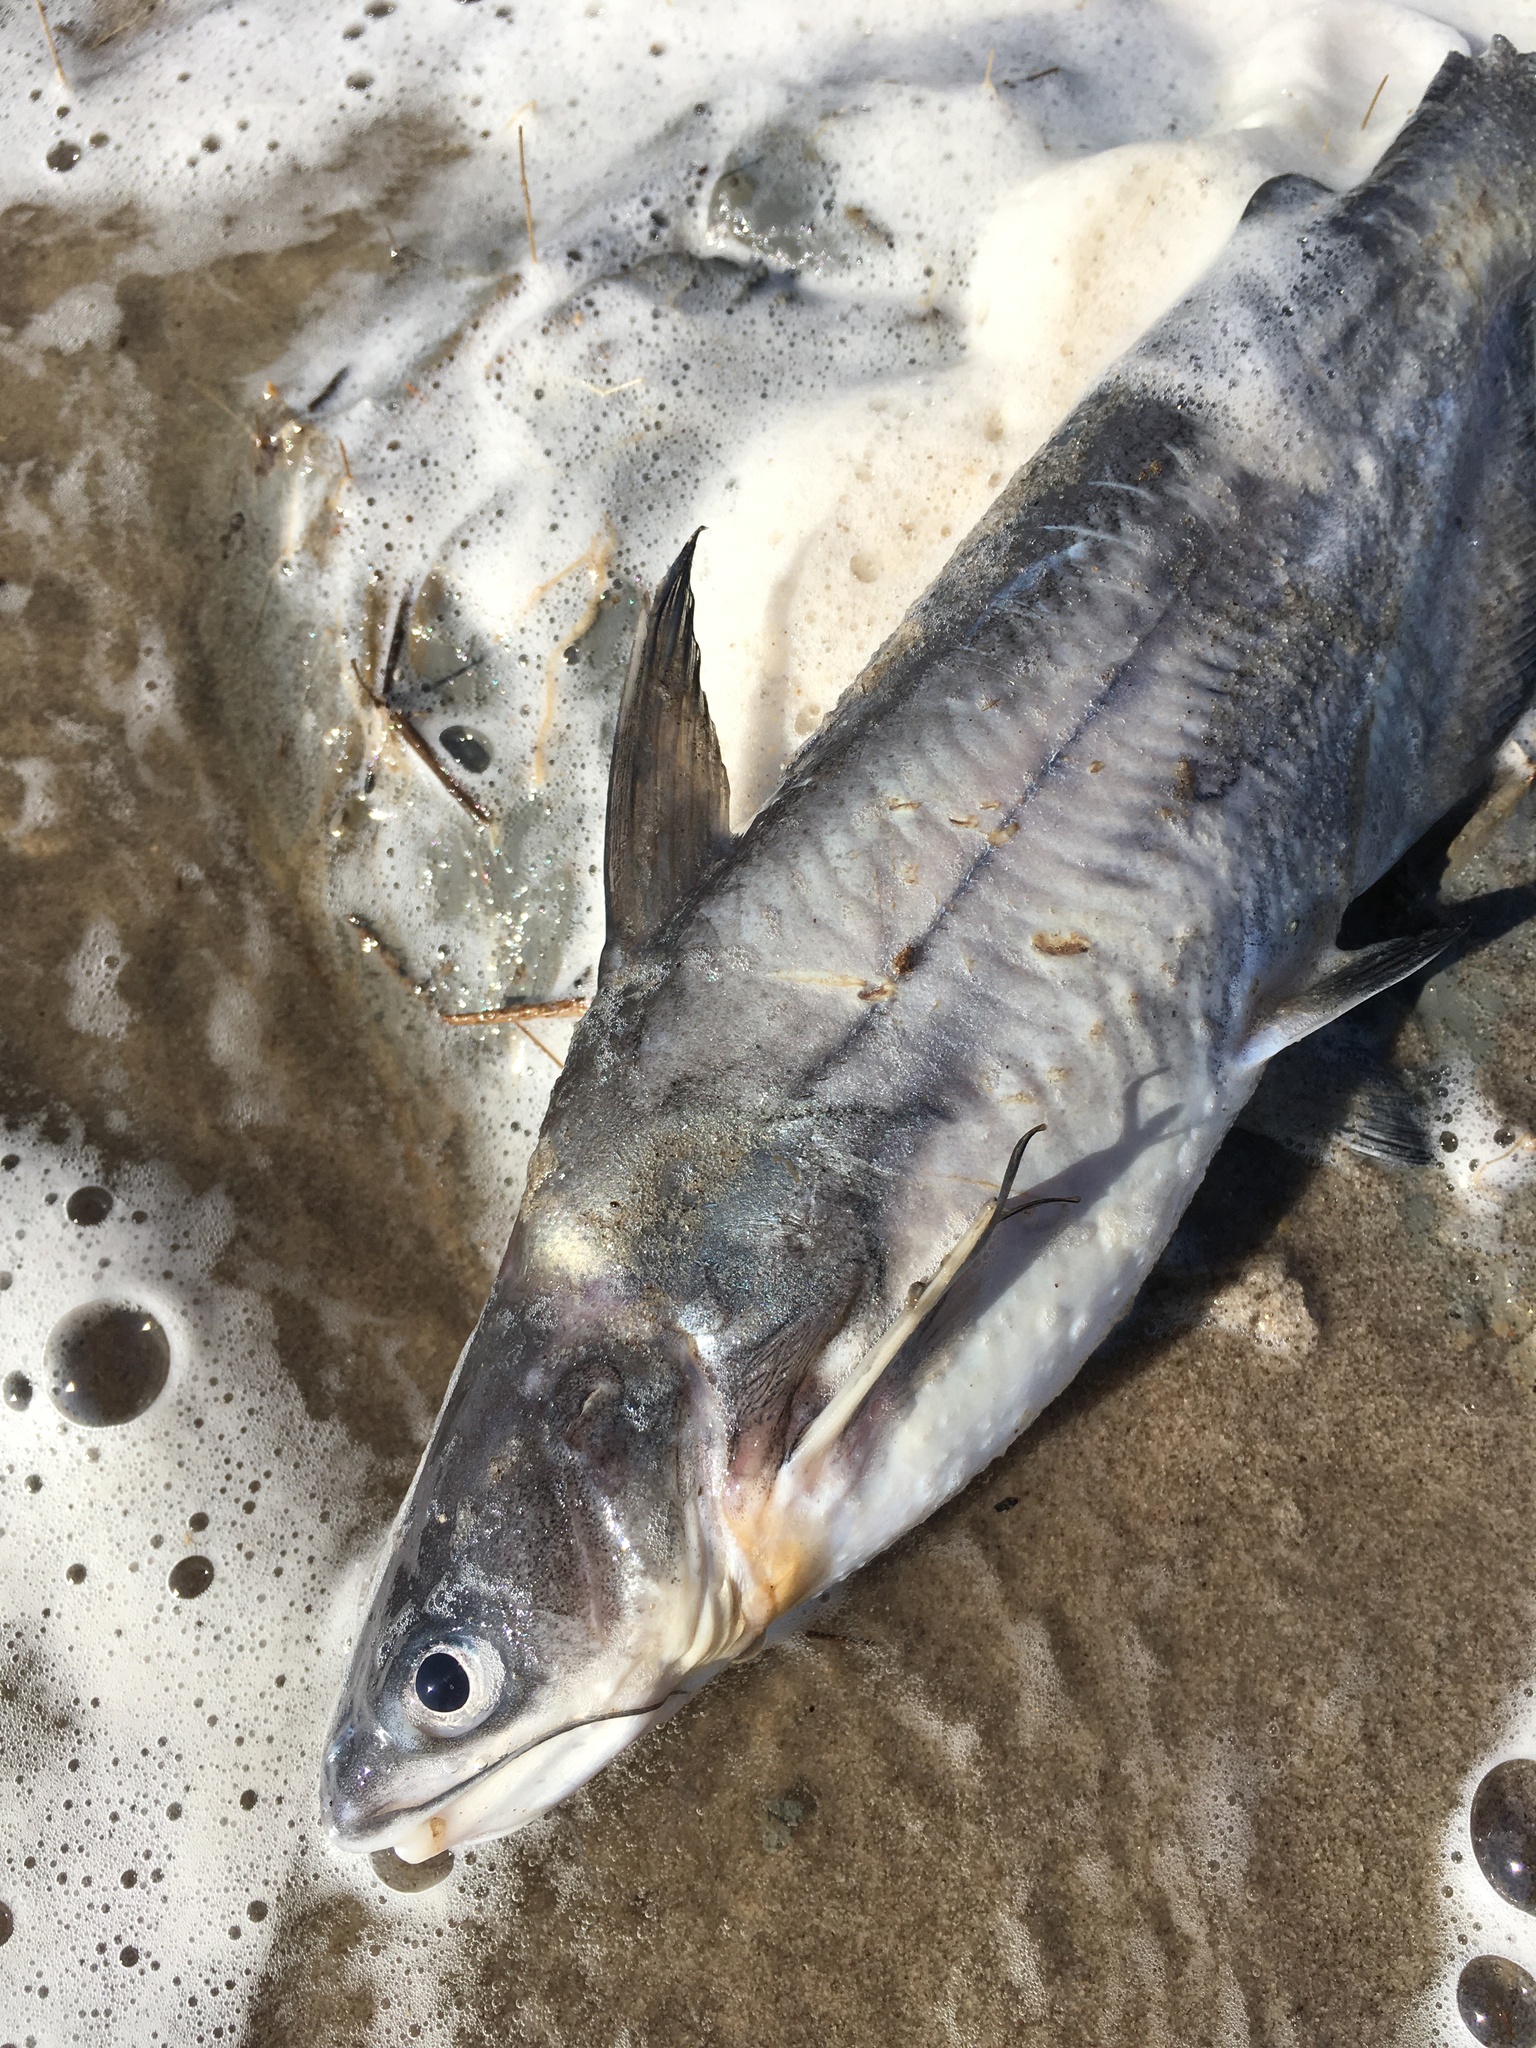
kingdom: Animalia
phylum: Chordata
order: Siluriformes
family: Ictaluridae
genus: Ictalurus
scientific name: Ictalurus furcatus
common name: Blue catfish
